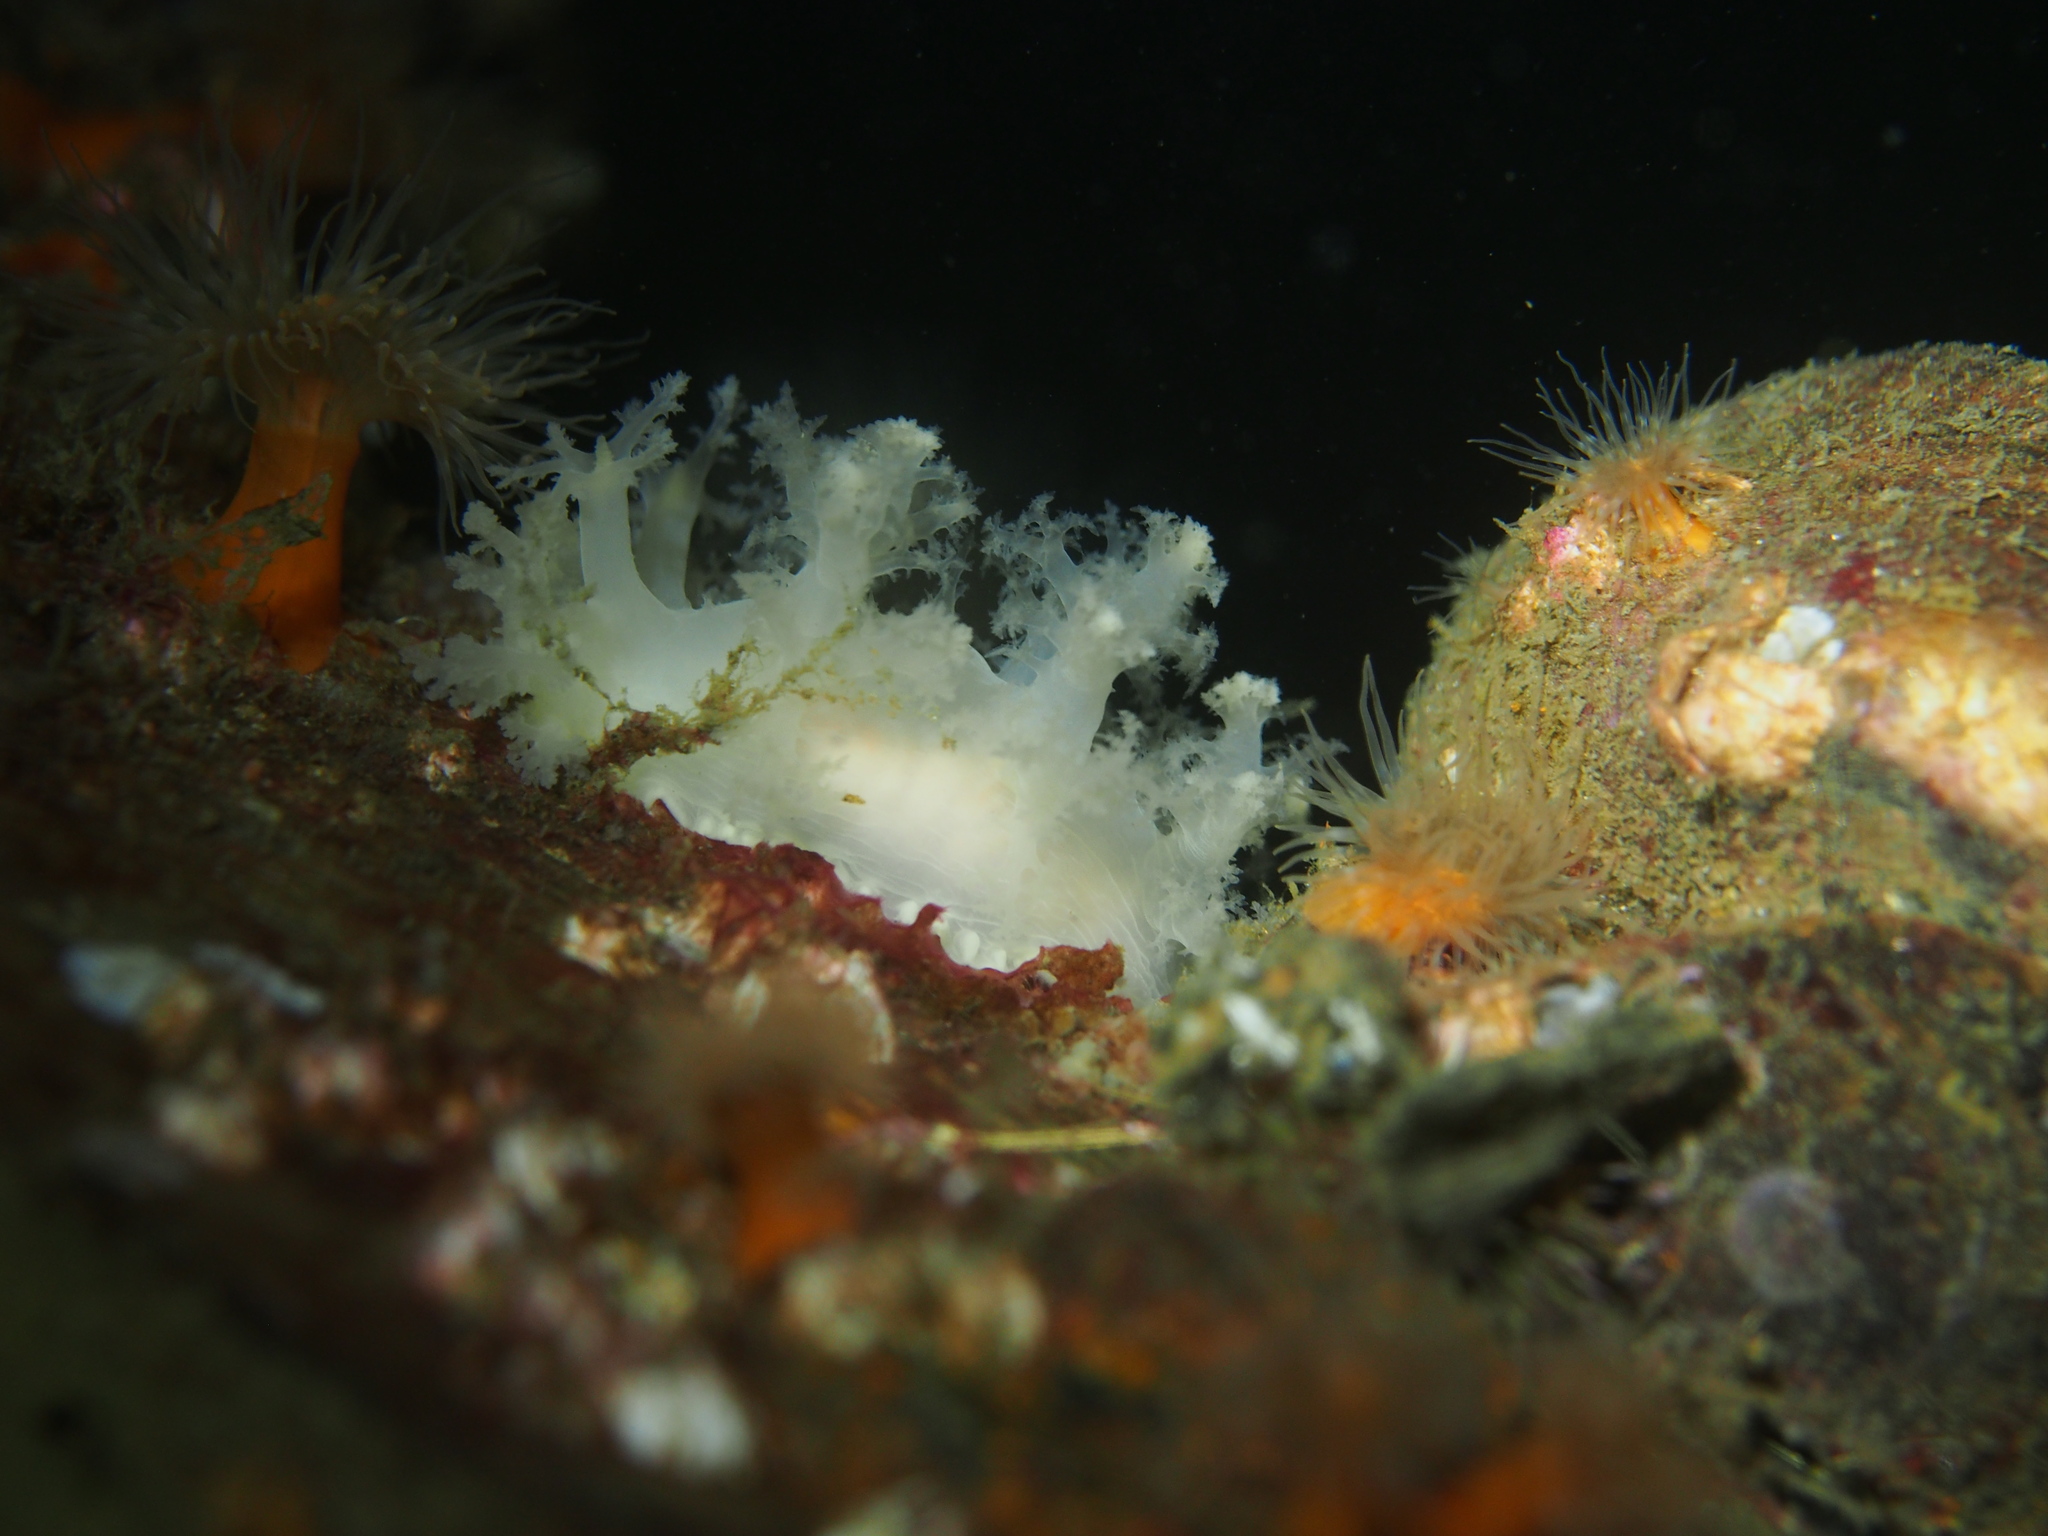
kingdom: Animalia
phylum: Mollusca
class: Gastropoda
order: Nudibranchia
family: Dendronotidae
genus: Dendronotus
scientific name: Dendronotus lacteus
